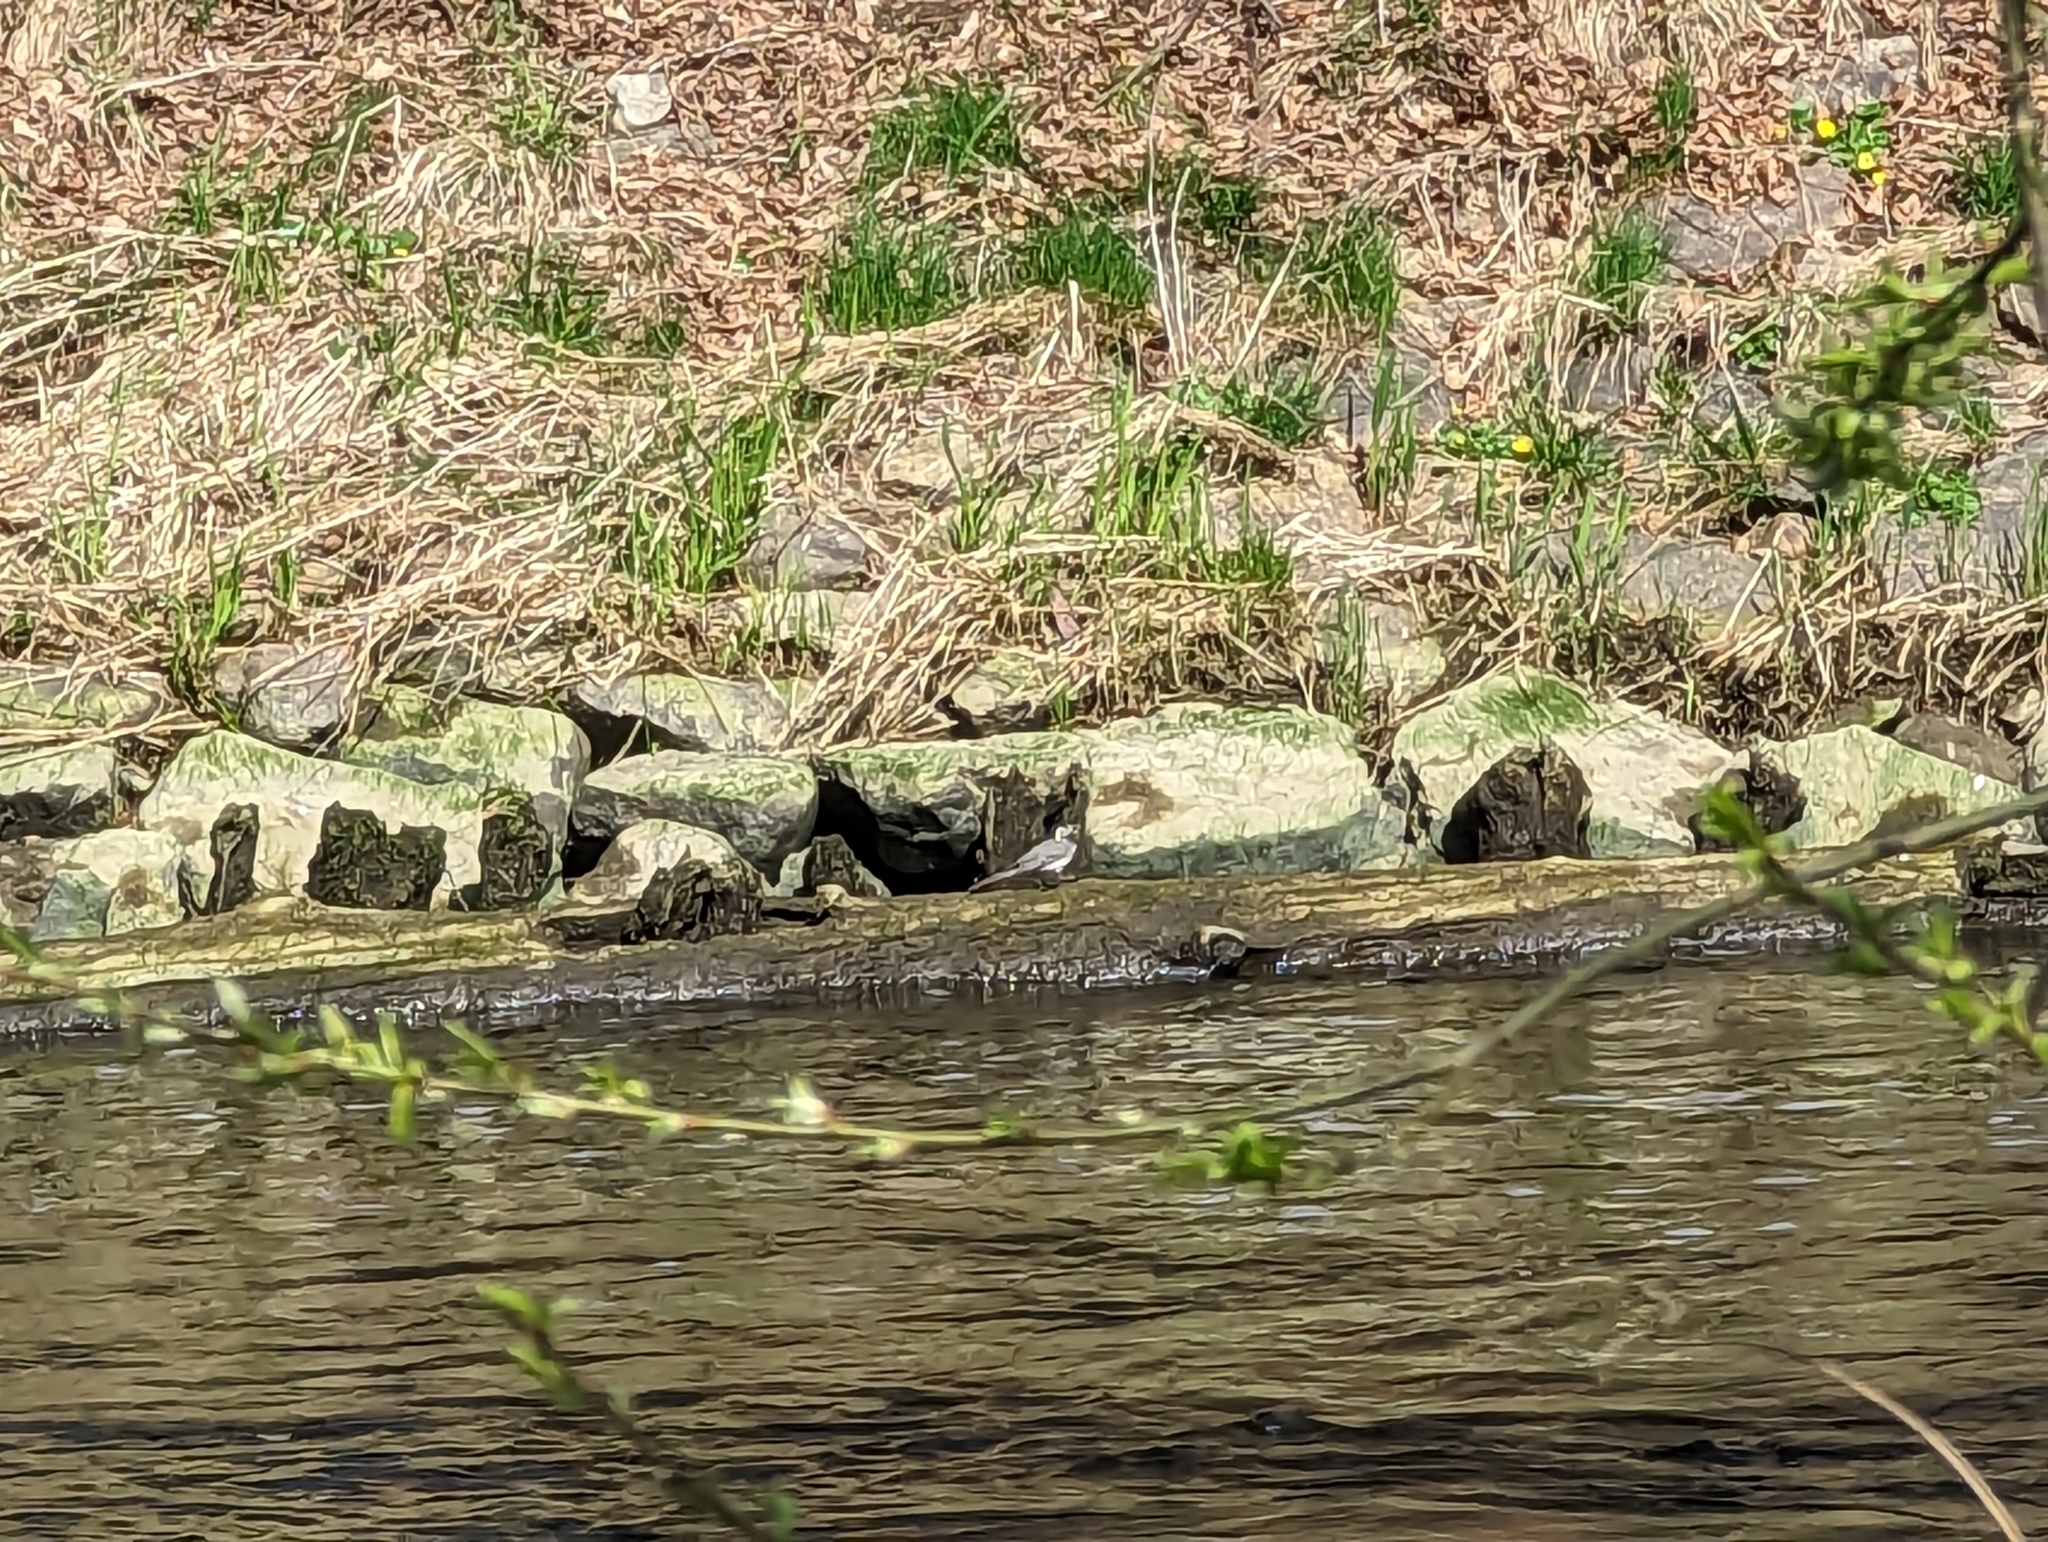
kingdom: Animalia
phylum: Chordata
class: Aves
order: Passeriformes
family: Motacillidae
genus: Motacilla
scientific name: Motacilla alba
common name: White wagtail
